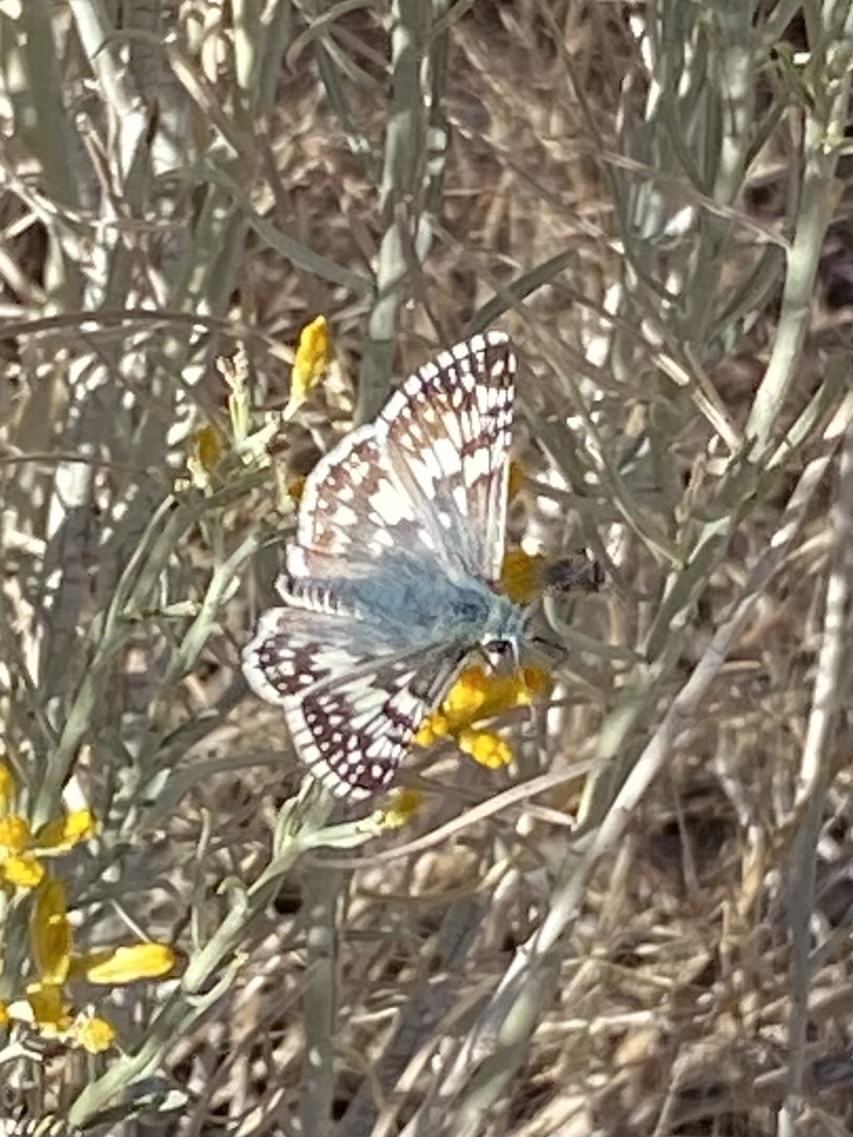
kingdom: Animalia
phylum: Arthropoda
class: Insecta
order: Lepidoptera
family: Hesperiidae
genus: Burnsius
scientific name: Burnsius
